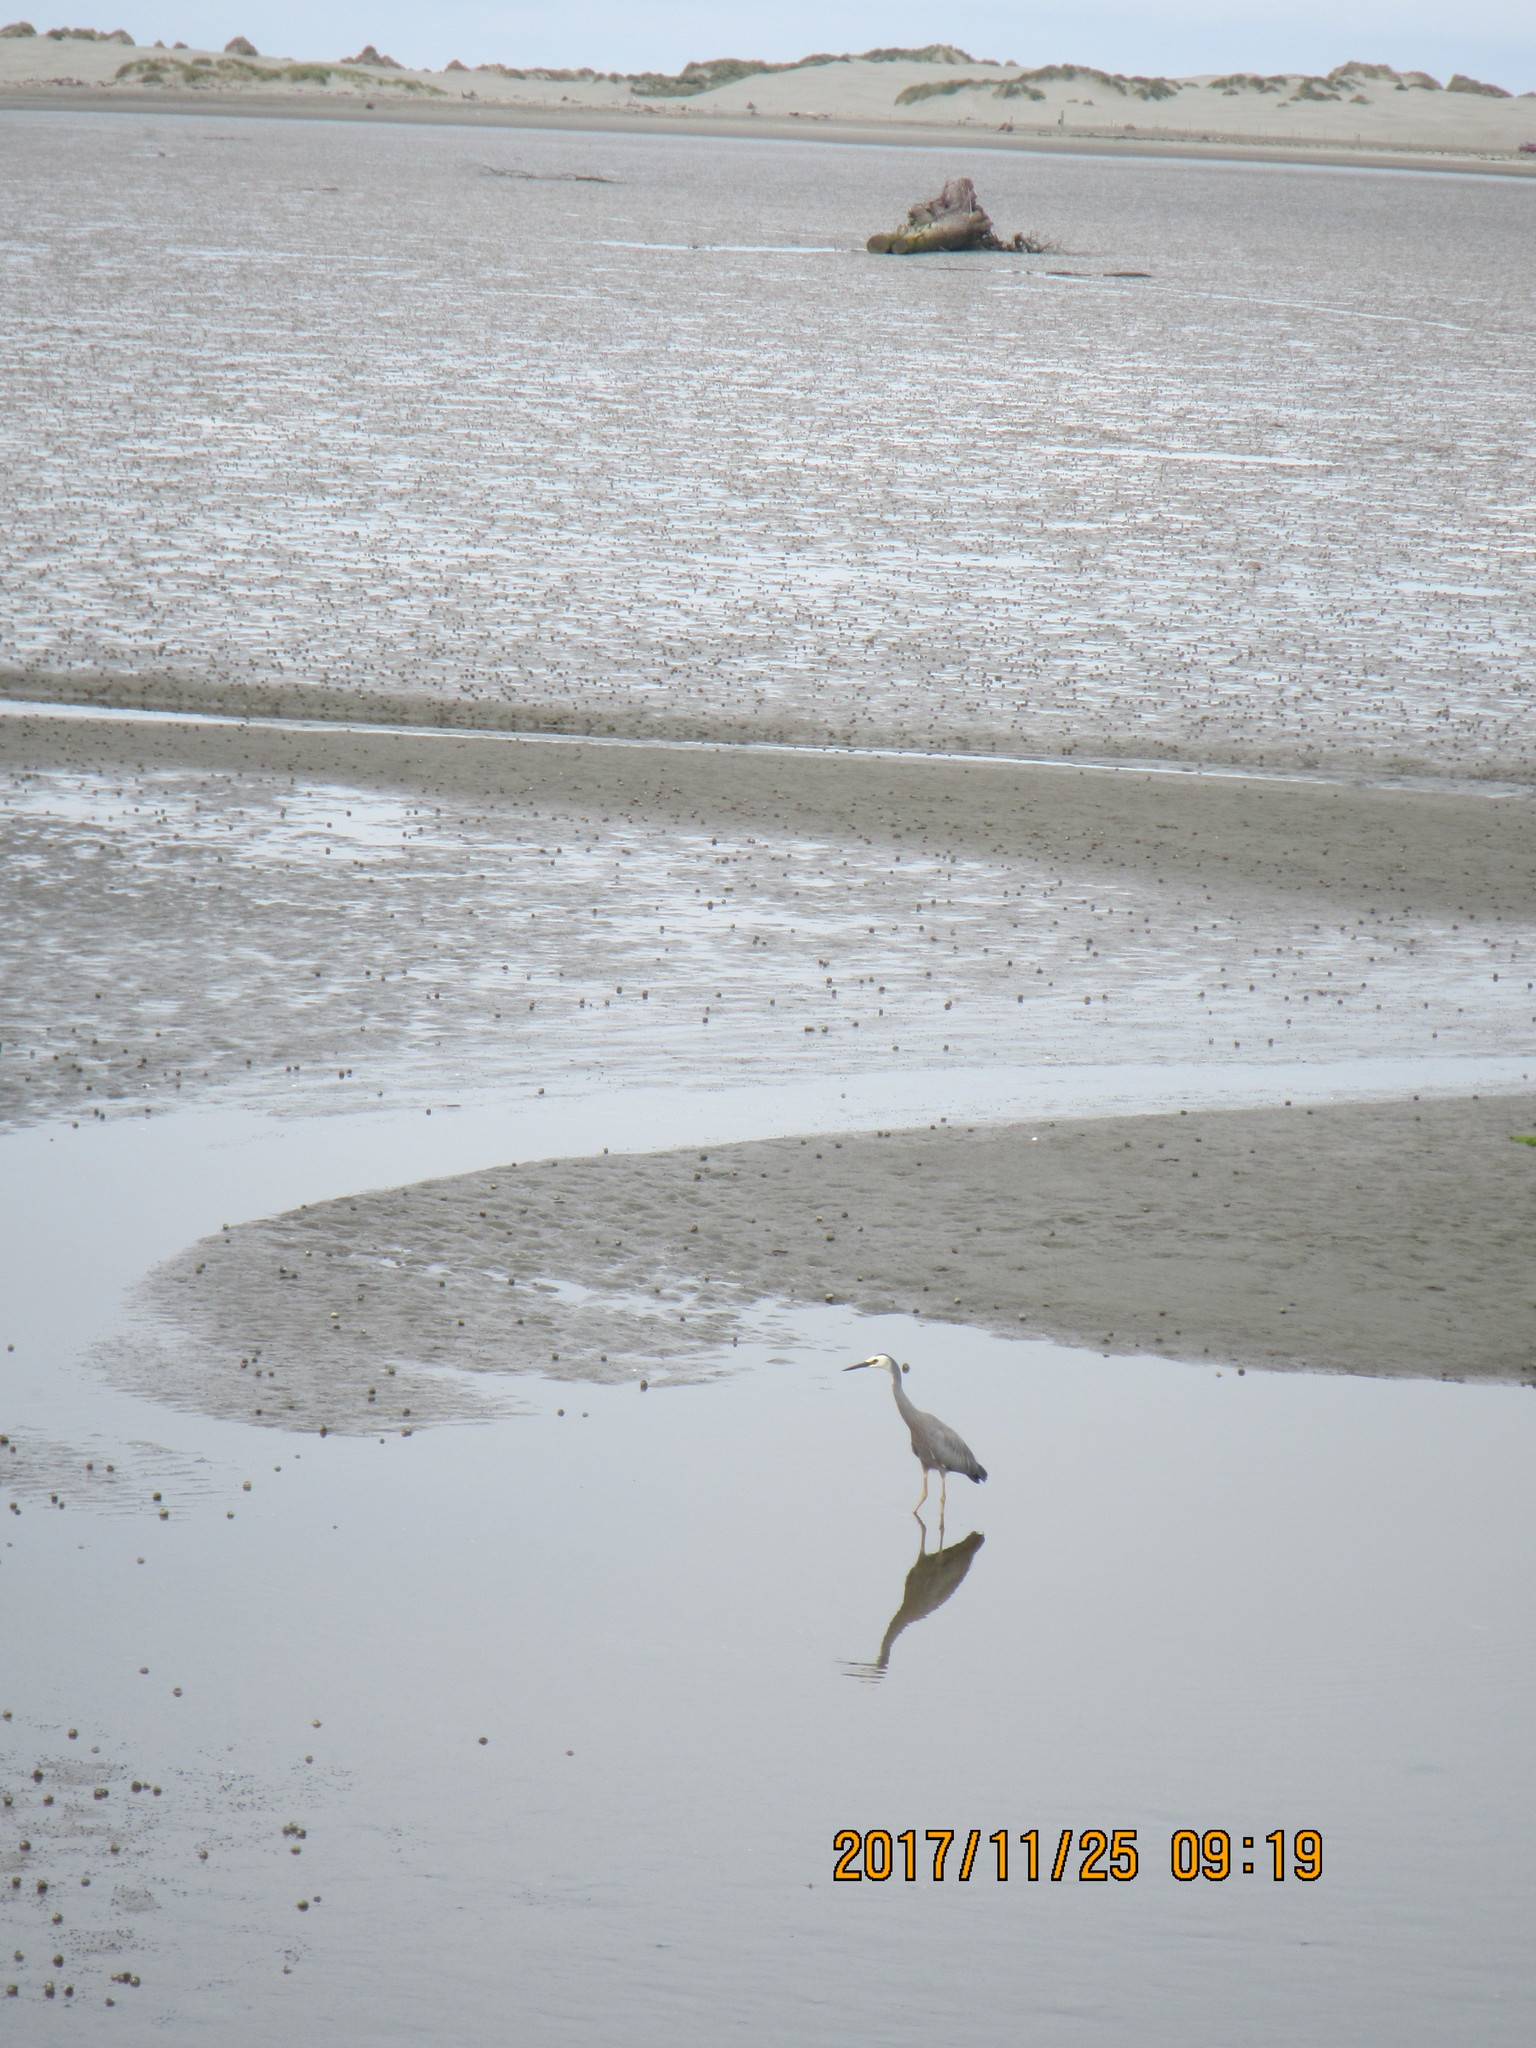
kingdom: Animalia
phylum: Chordata
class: Aves
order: Pelecaniformes
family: Ardeidae
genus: Egretta
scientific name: Egretta novaehollandiae
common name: White-faced heron
